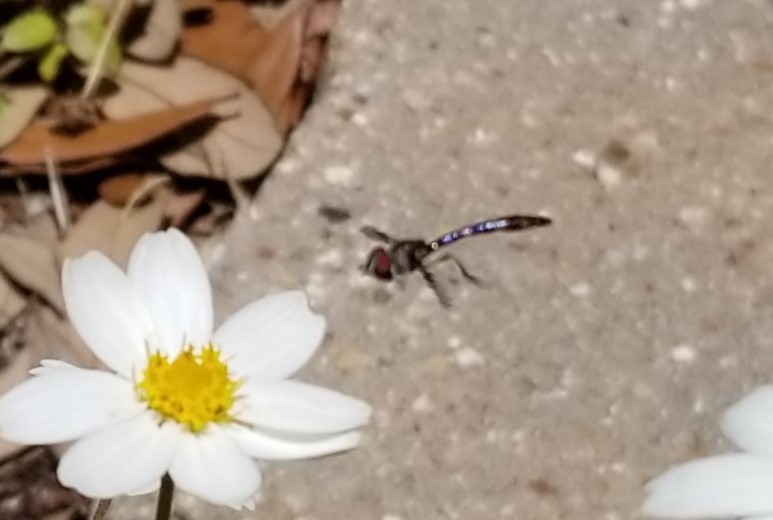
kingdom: Animalia
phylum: Arthropoda
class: Insecta
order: Diptera
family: Syrphidae
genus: Hypocritanus
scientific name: Hypocritanus fascipennis
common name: Eastern band-winged hover fly
